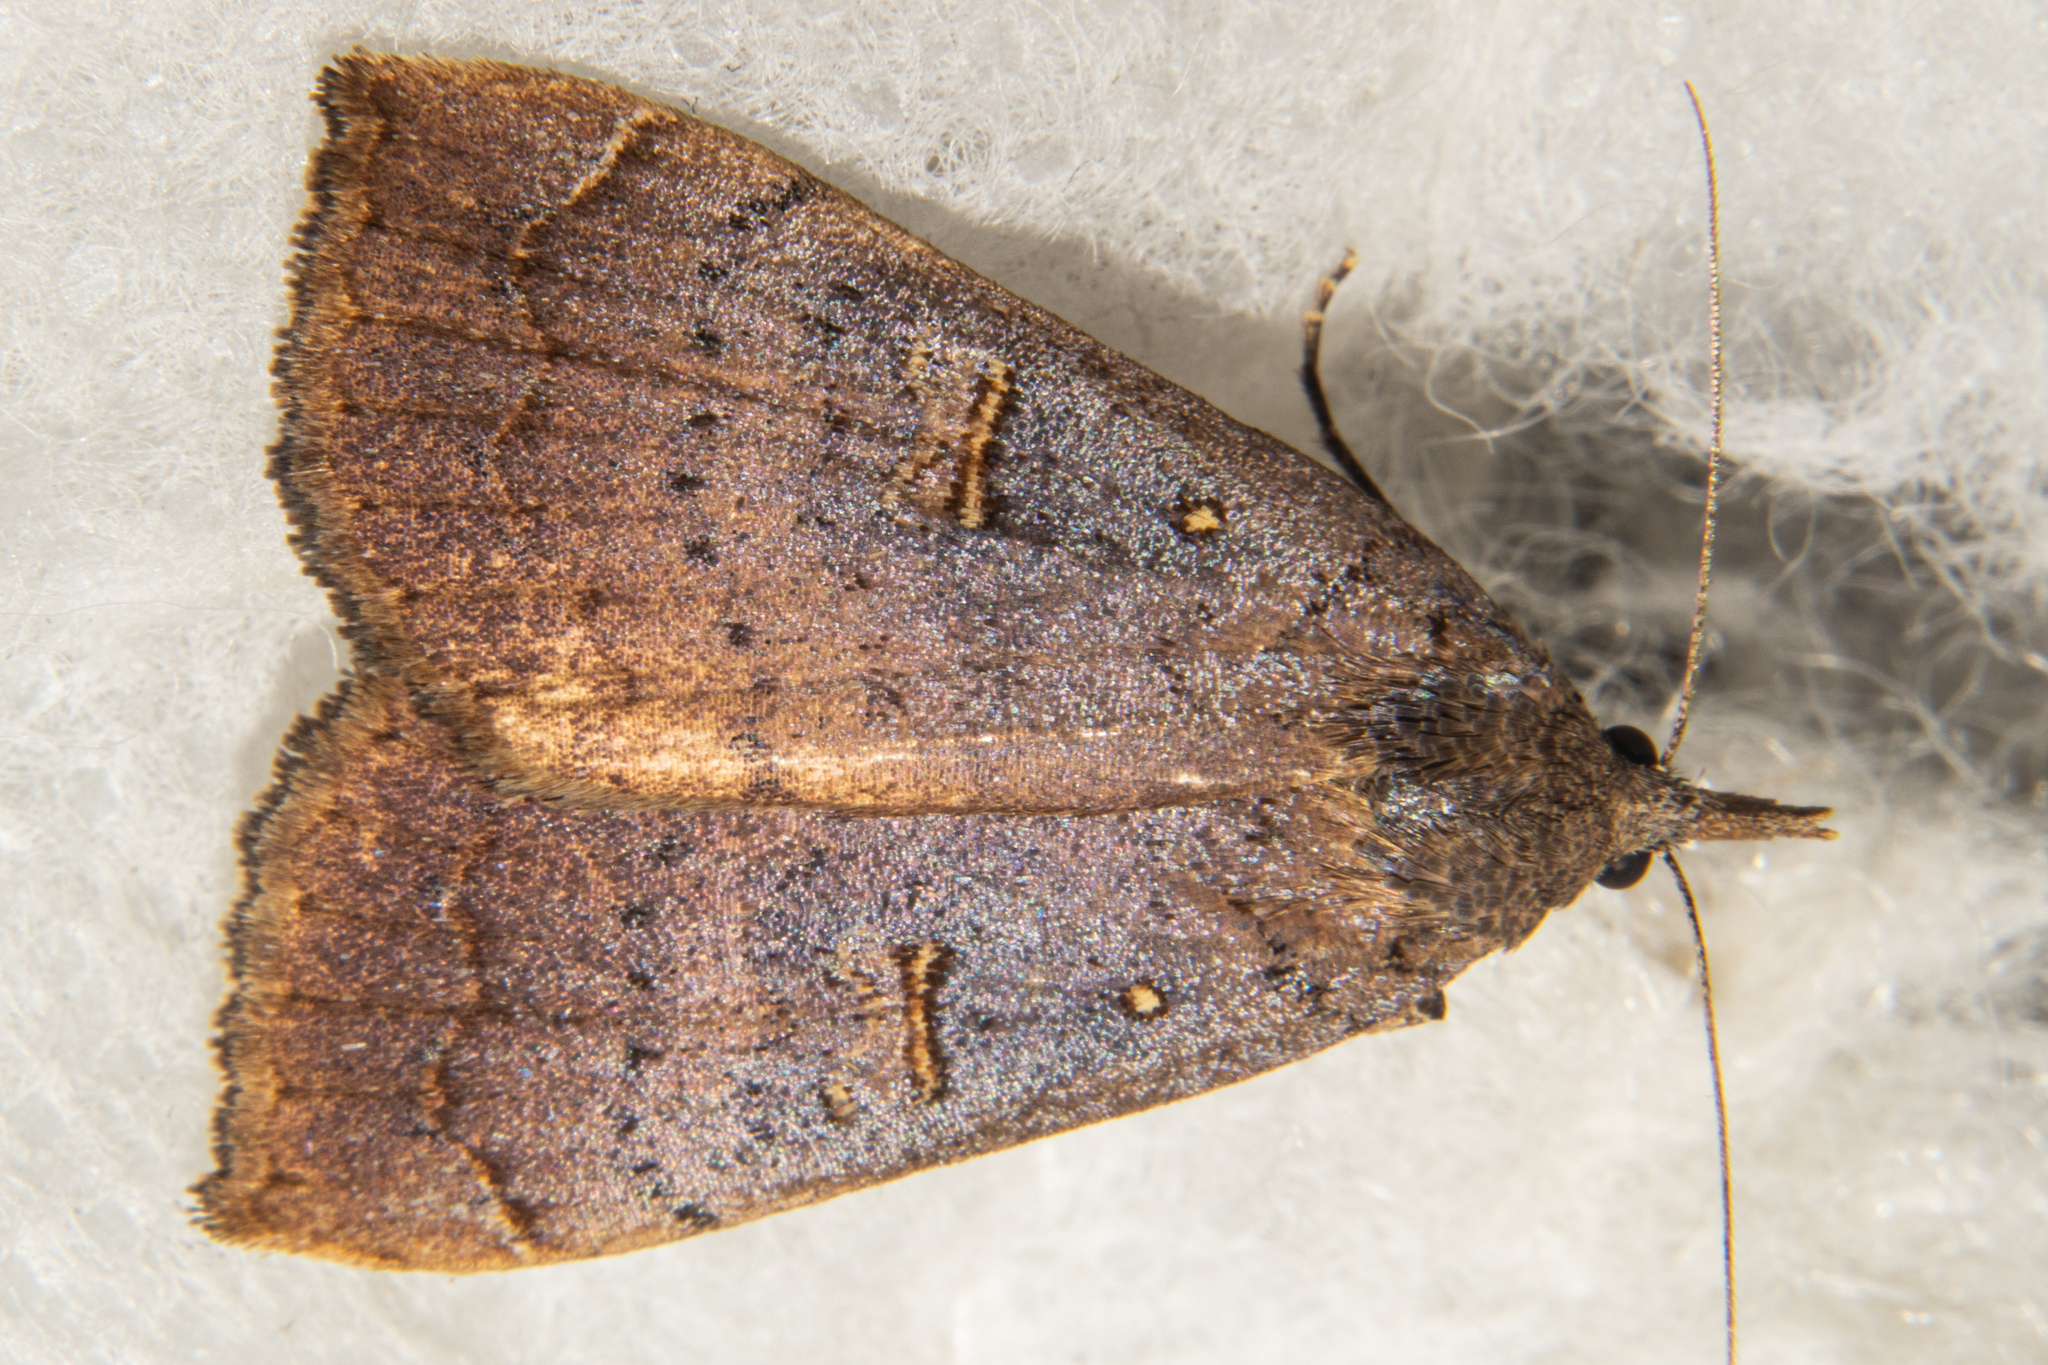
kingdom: Animalia
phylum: Arthropoda
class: Insecta
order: Lepidoptera
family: Erebidae
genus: Rhapsa
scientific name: Rhapsa scotosialis
